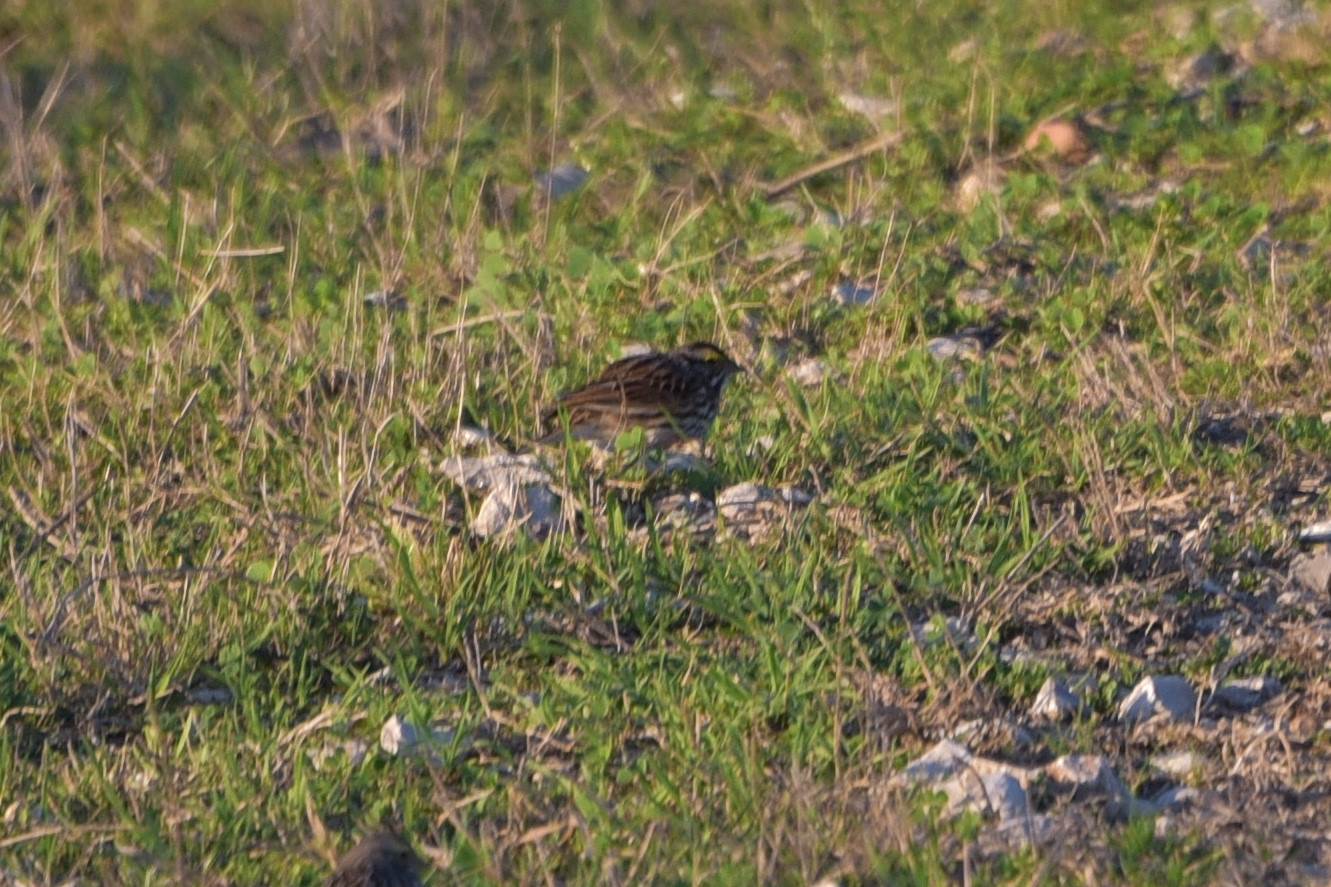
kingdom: Animalia
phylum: Chordata
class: Aves
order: Passeriformes
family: Passerellidae
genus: Passerculus
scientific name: Passerculus sandwichensis
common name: Savannah sparrow
